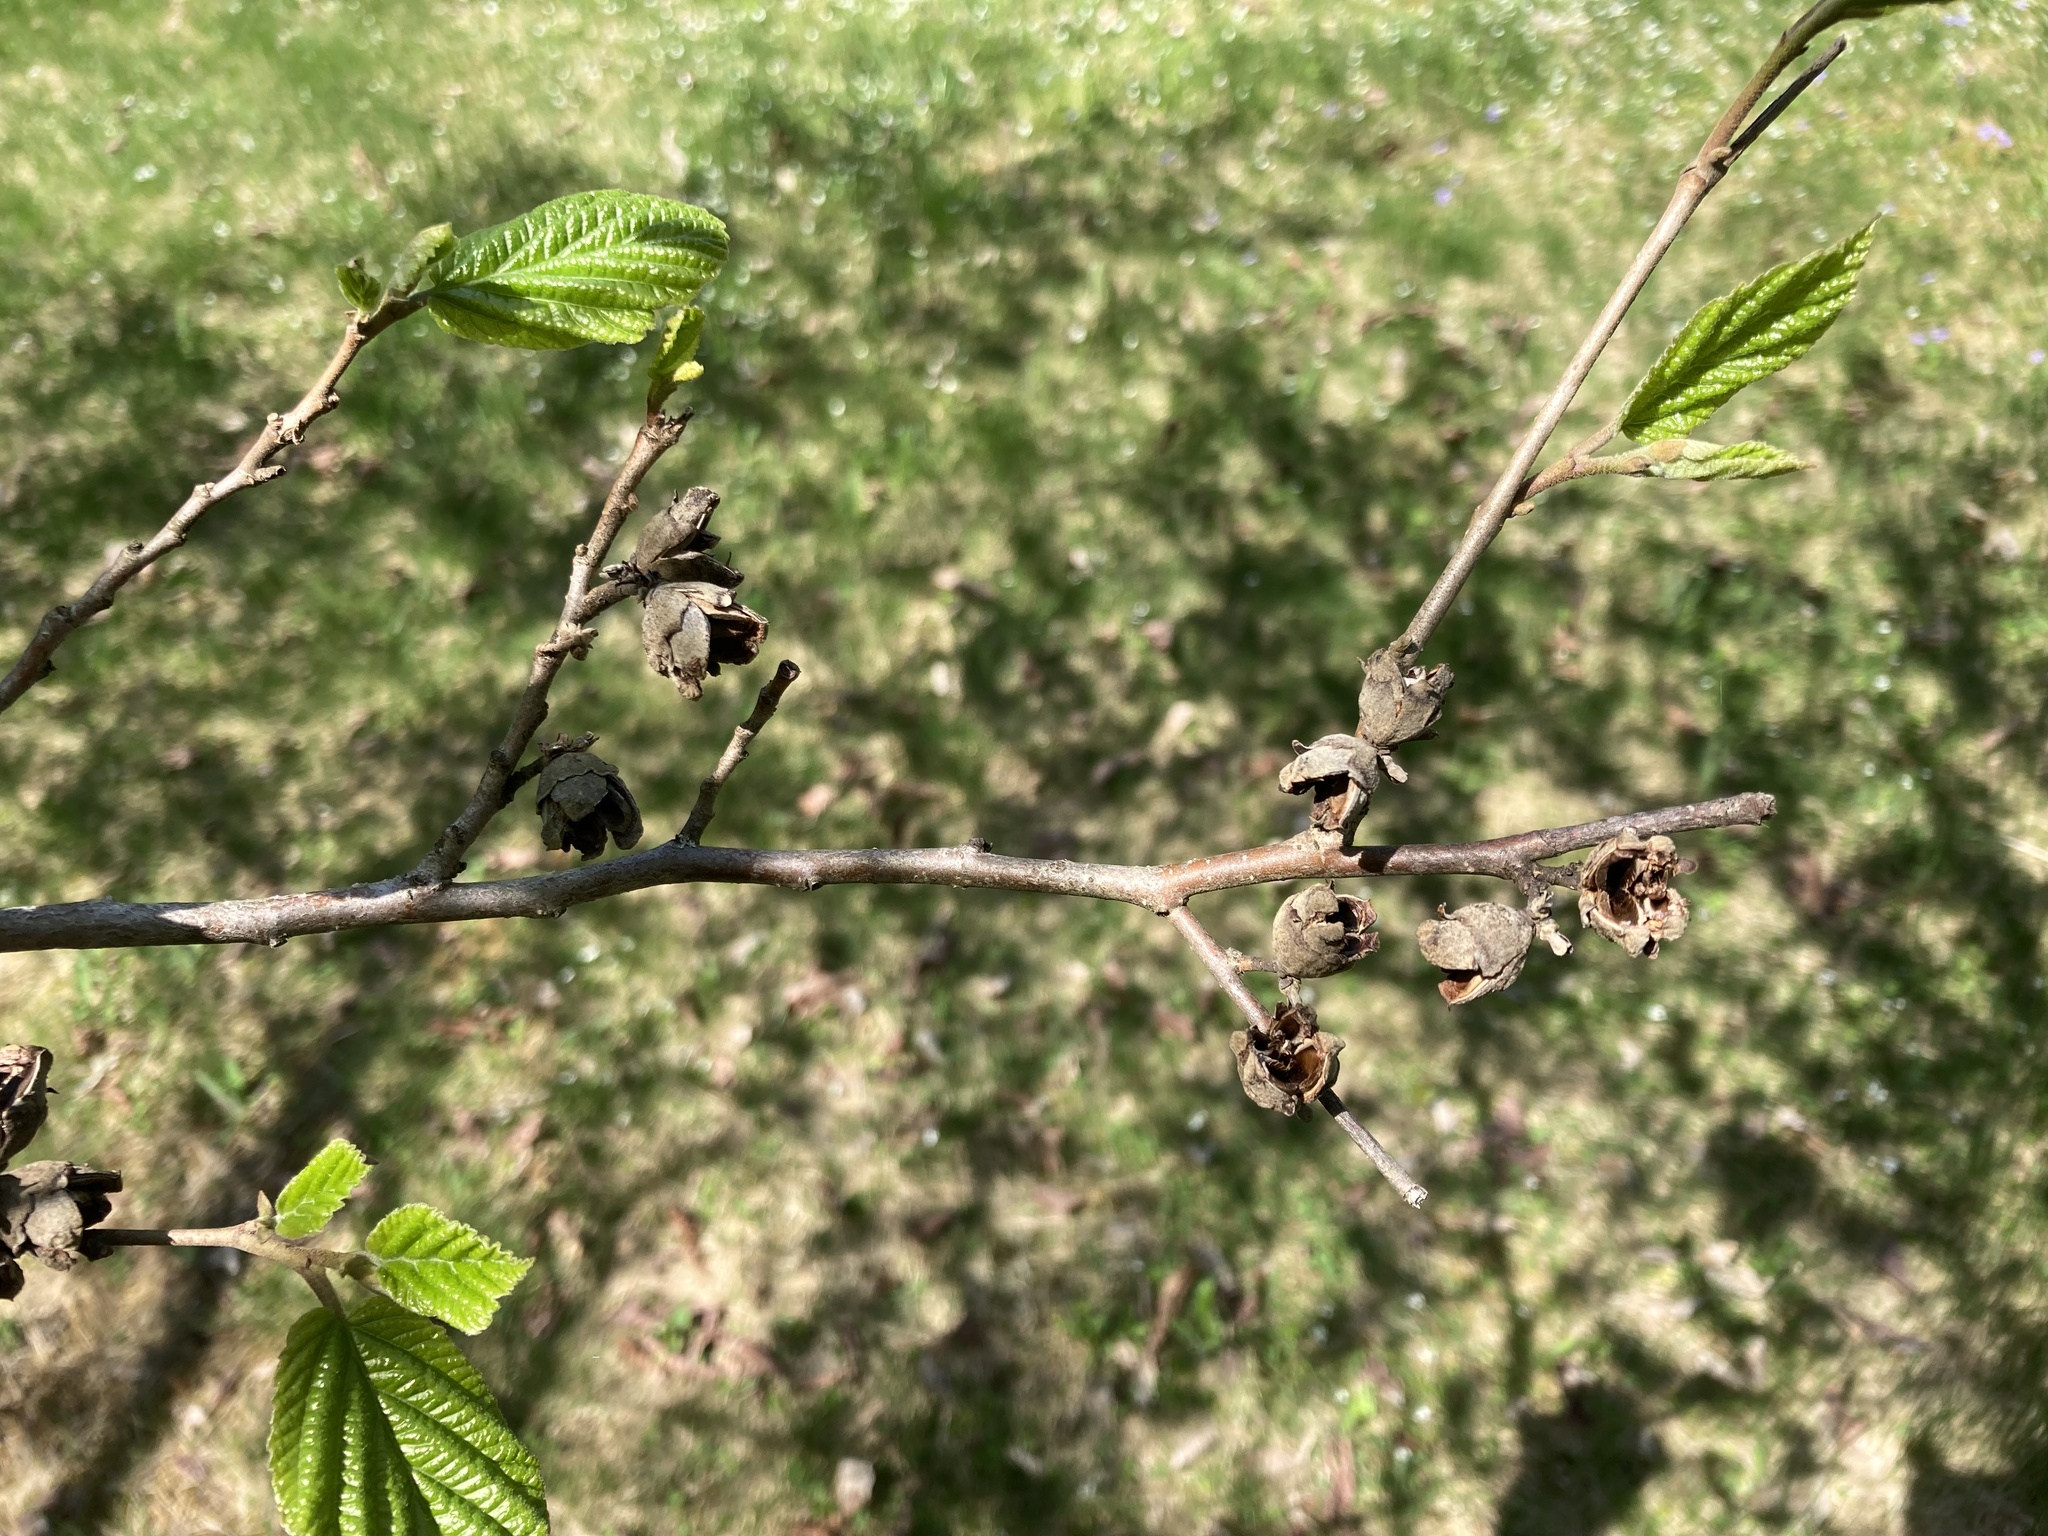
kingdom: Plantae
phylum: Tracheophyta
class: Magnoliopsida
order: Saxifragales
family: Hamamelidaceae
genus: Hamamelis
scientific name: Hamamelis virginiana
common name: Witch-hazel
